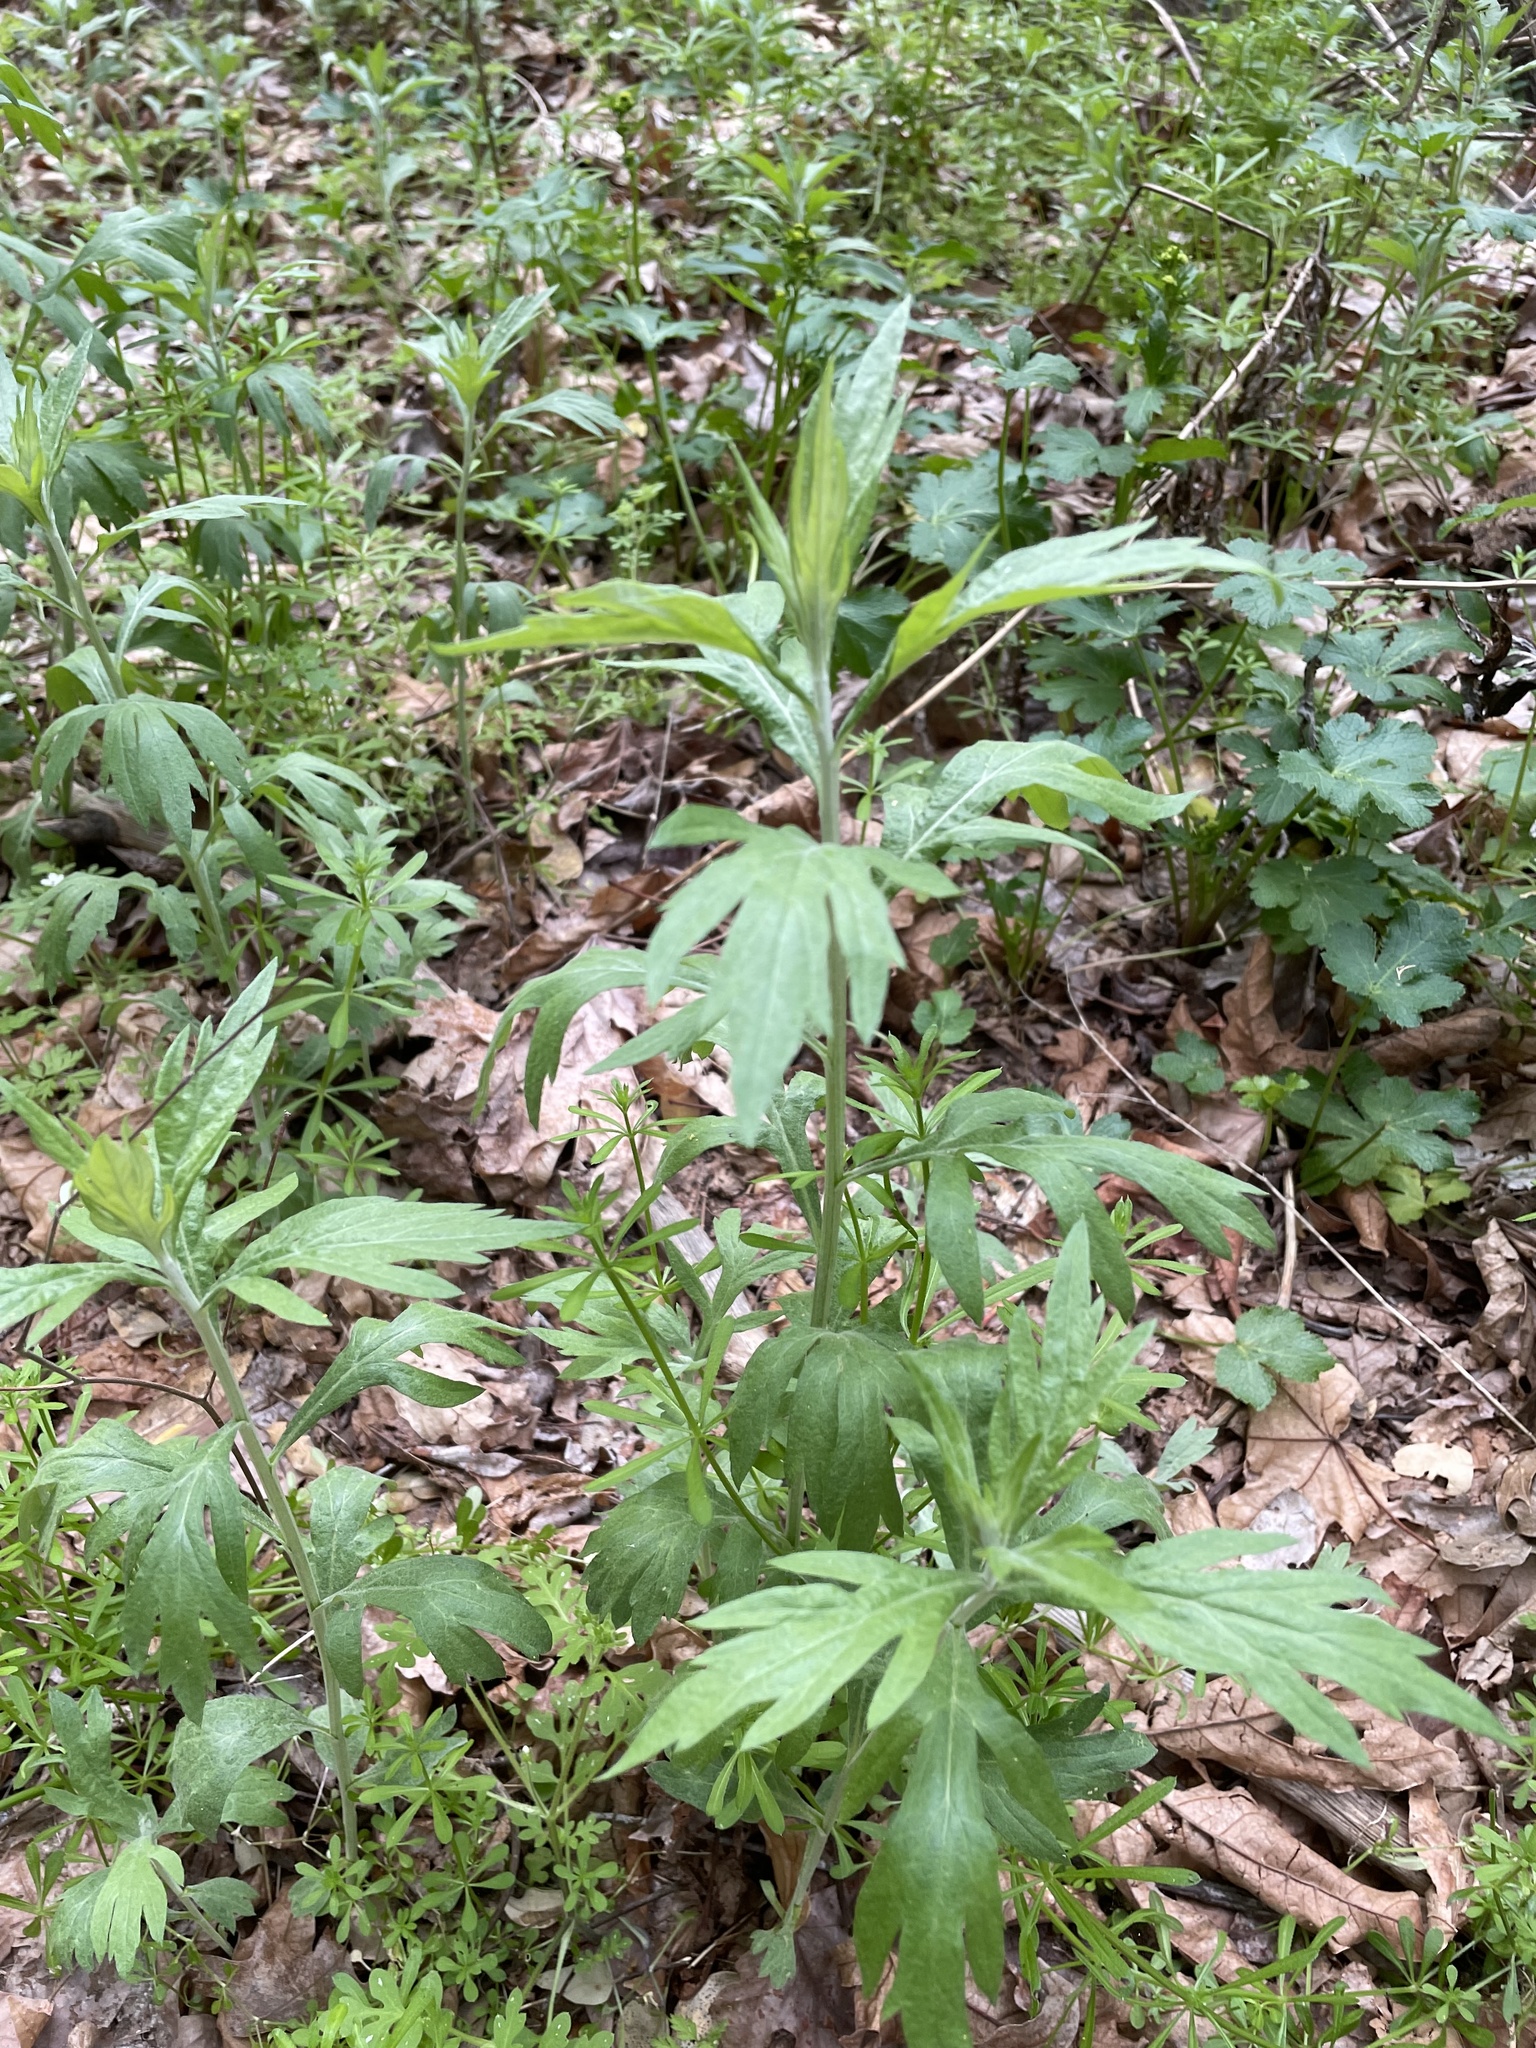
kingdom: Plantae
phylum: Tracheophyta
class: Magnoliopsida
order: Asterales
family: Asteraceae
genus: Artemisia
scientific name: Artemisia douglasiana
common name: Northwest mugwort
